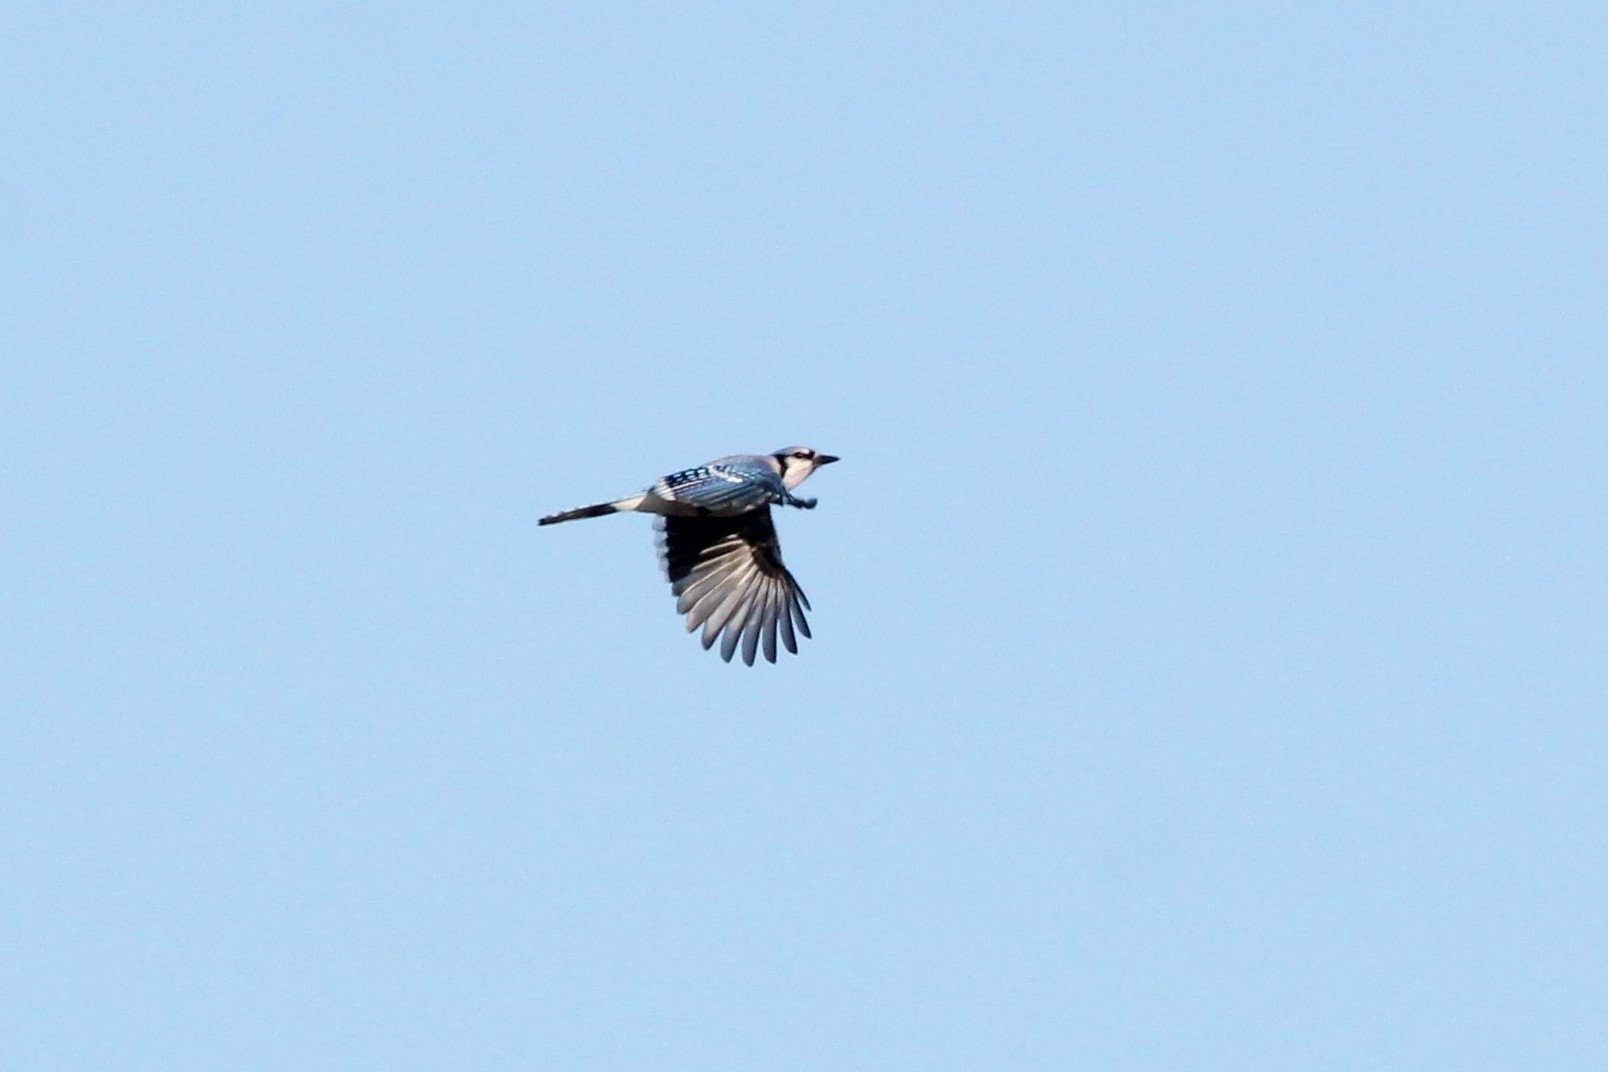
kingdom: Animalia
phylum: Chordata
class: Aves
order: Passeriformes
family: Corvidae
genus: Cyanocitta
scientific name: Cyanocitta cristata
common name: Blue jay
